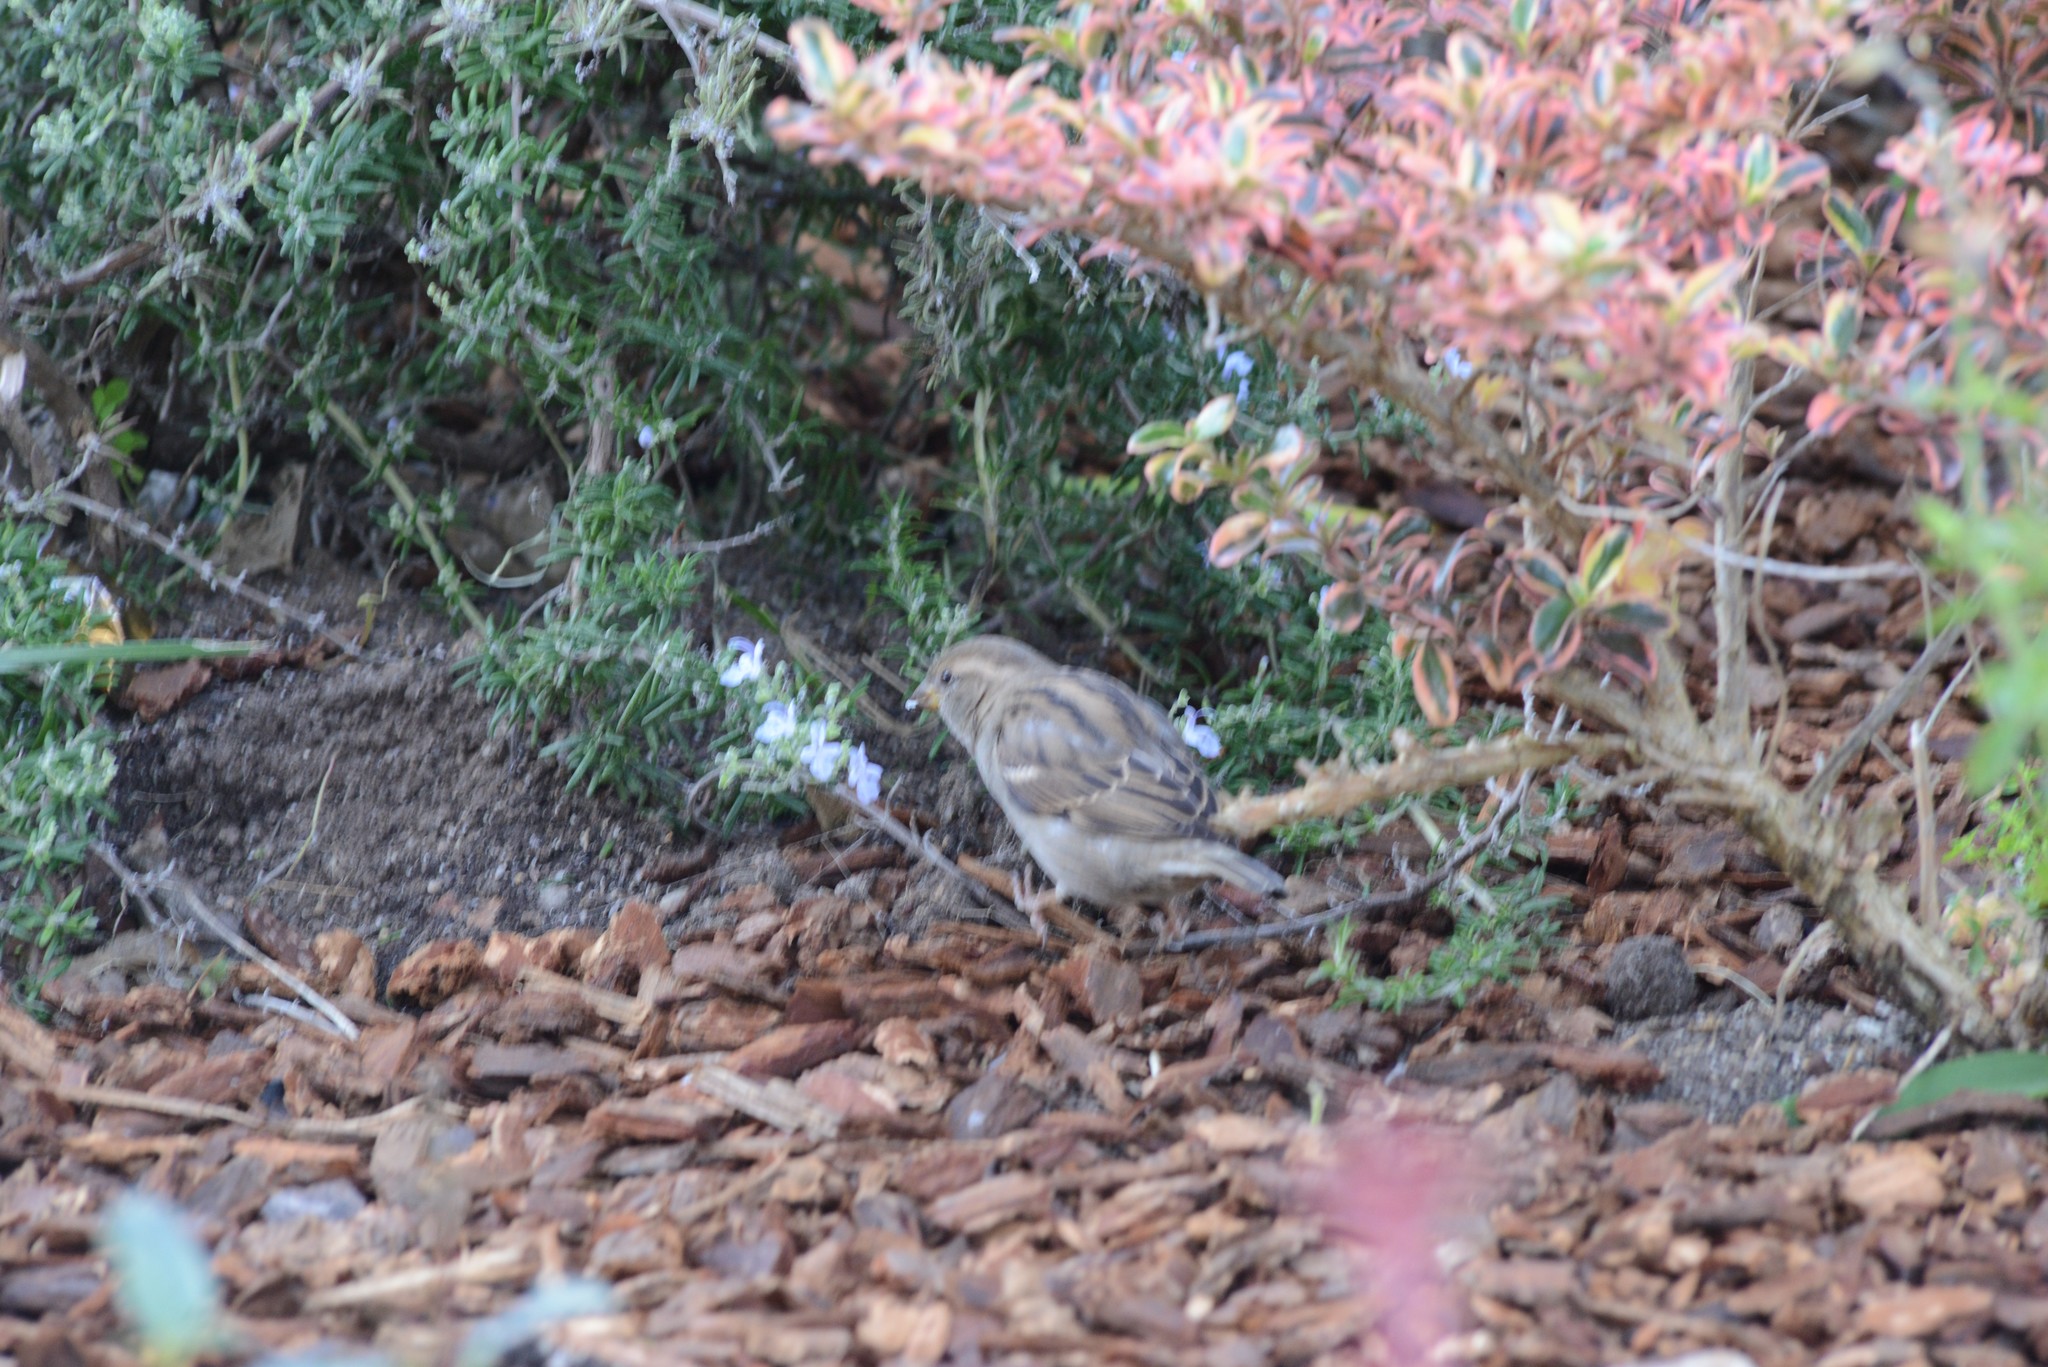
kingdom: Animalia
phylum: Chordata
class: Aves
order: Passeriformes
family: Passeridae
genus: Passer
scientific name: Passer domesticus
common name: House sparrow
